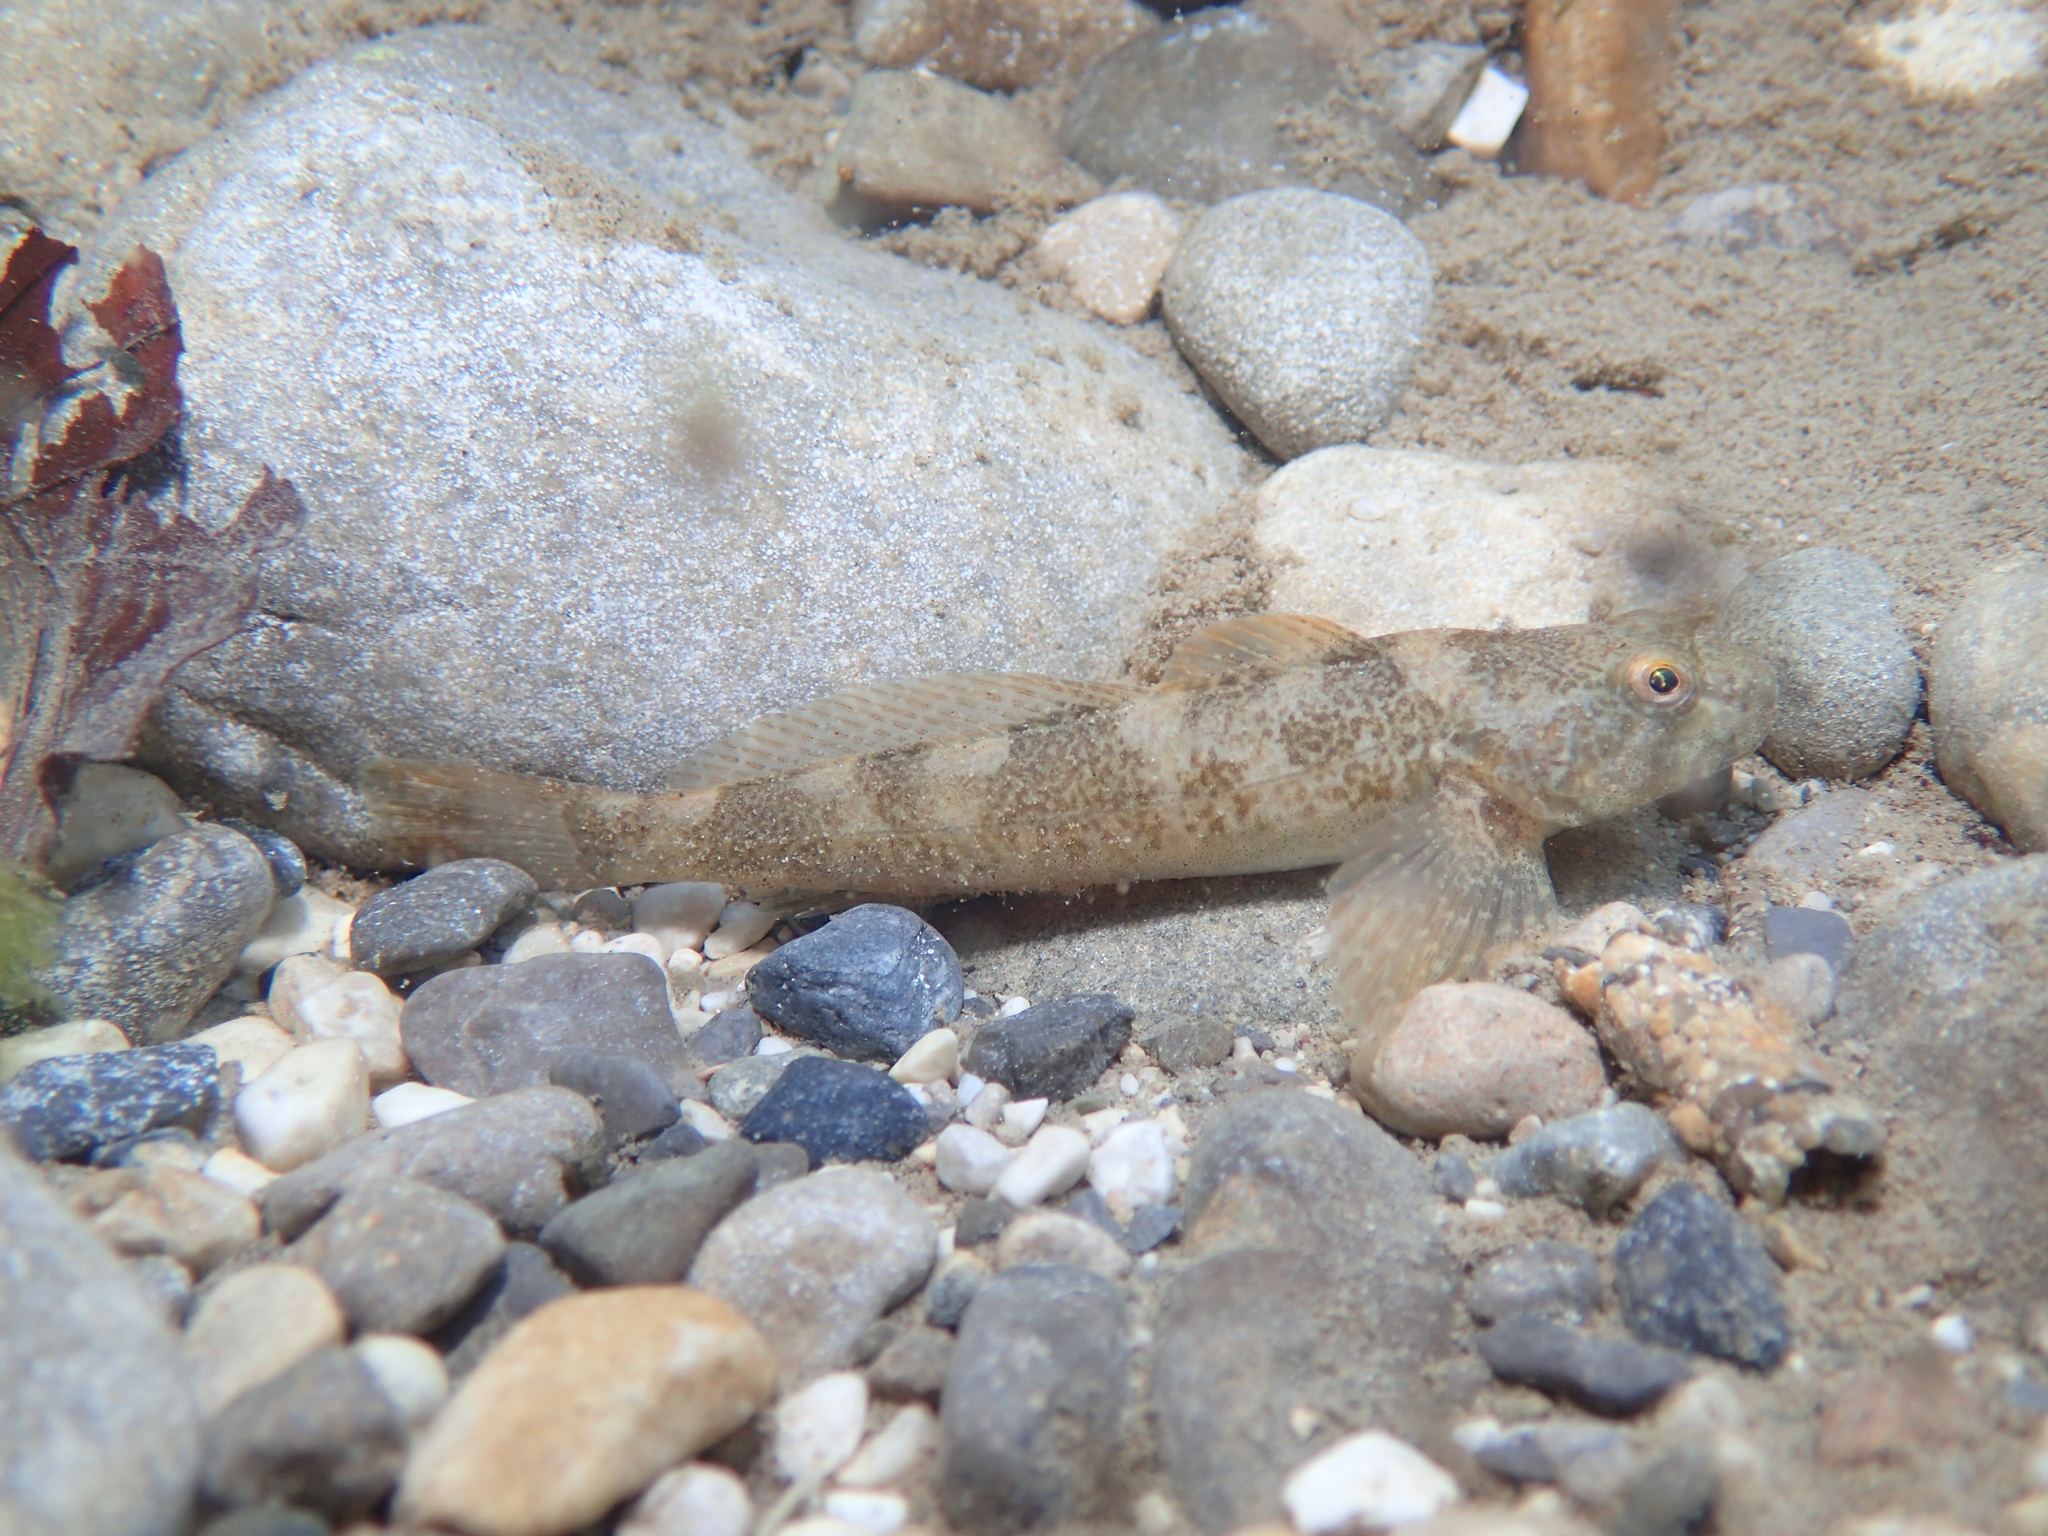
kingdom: Animalia
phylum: Chordata
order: Scorpaeniformes
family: Cottidae
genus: Cottus
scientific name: Cottus sabaudicus
